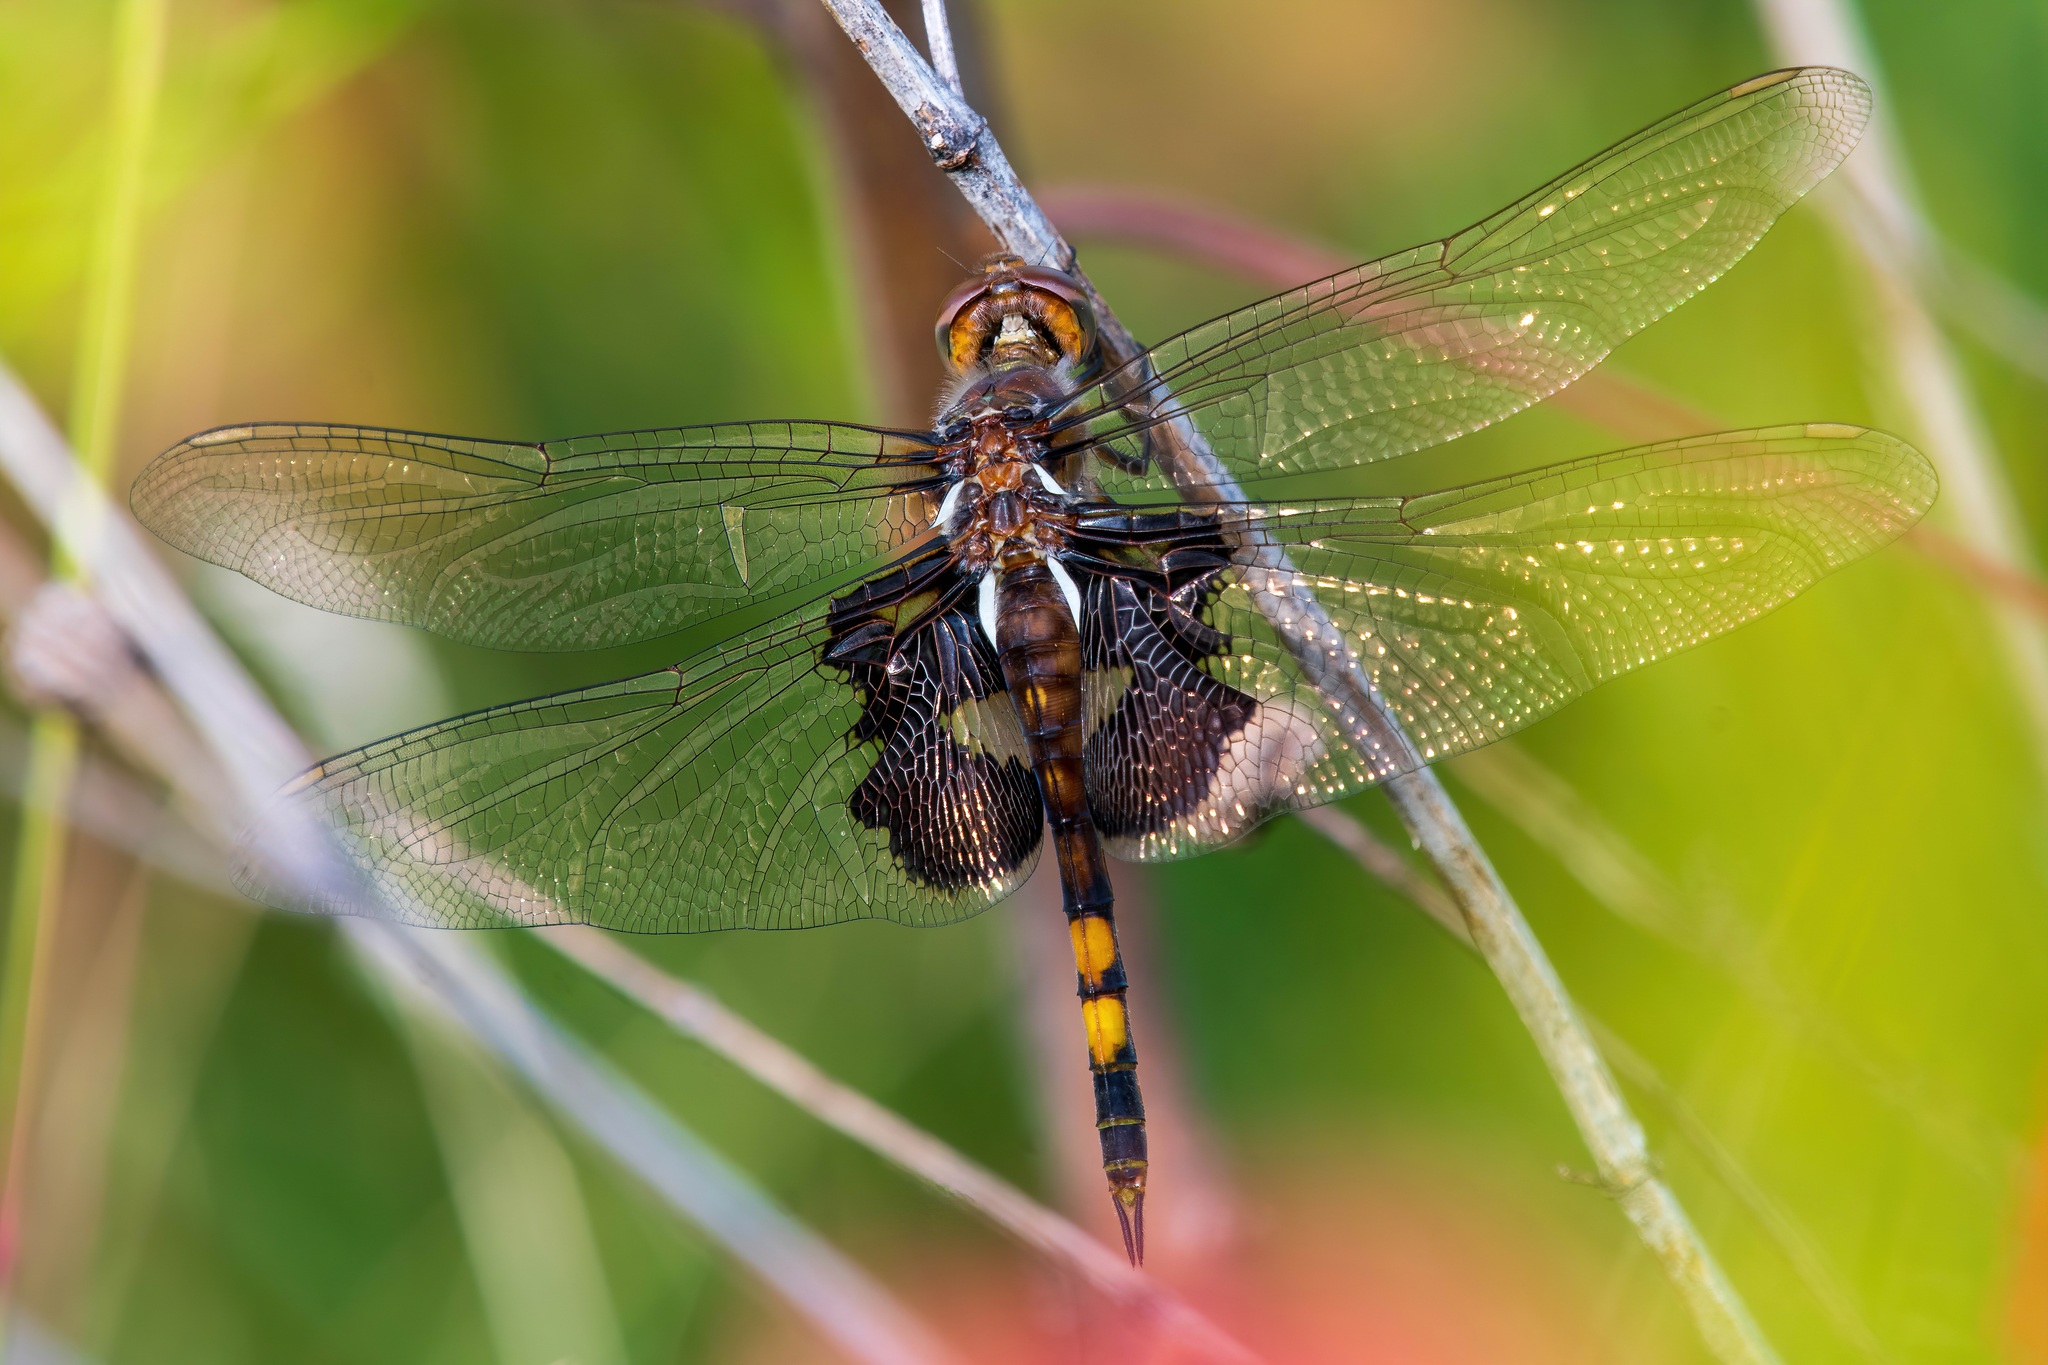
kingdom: Animalia
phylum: Arthropoda
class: Insecta
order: Odonata
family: Libellulidae
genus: Tramea
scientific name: Tramea lacerata
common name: Black saddlebags
